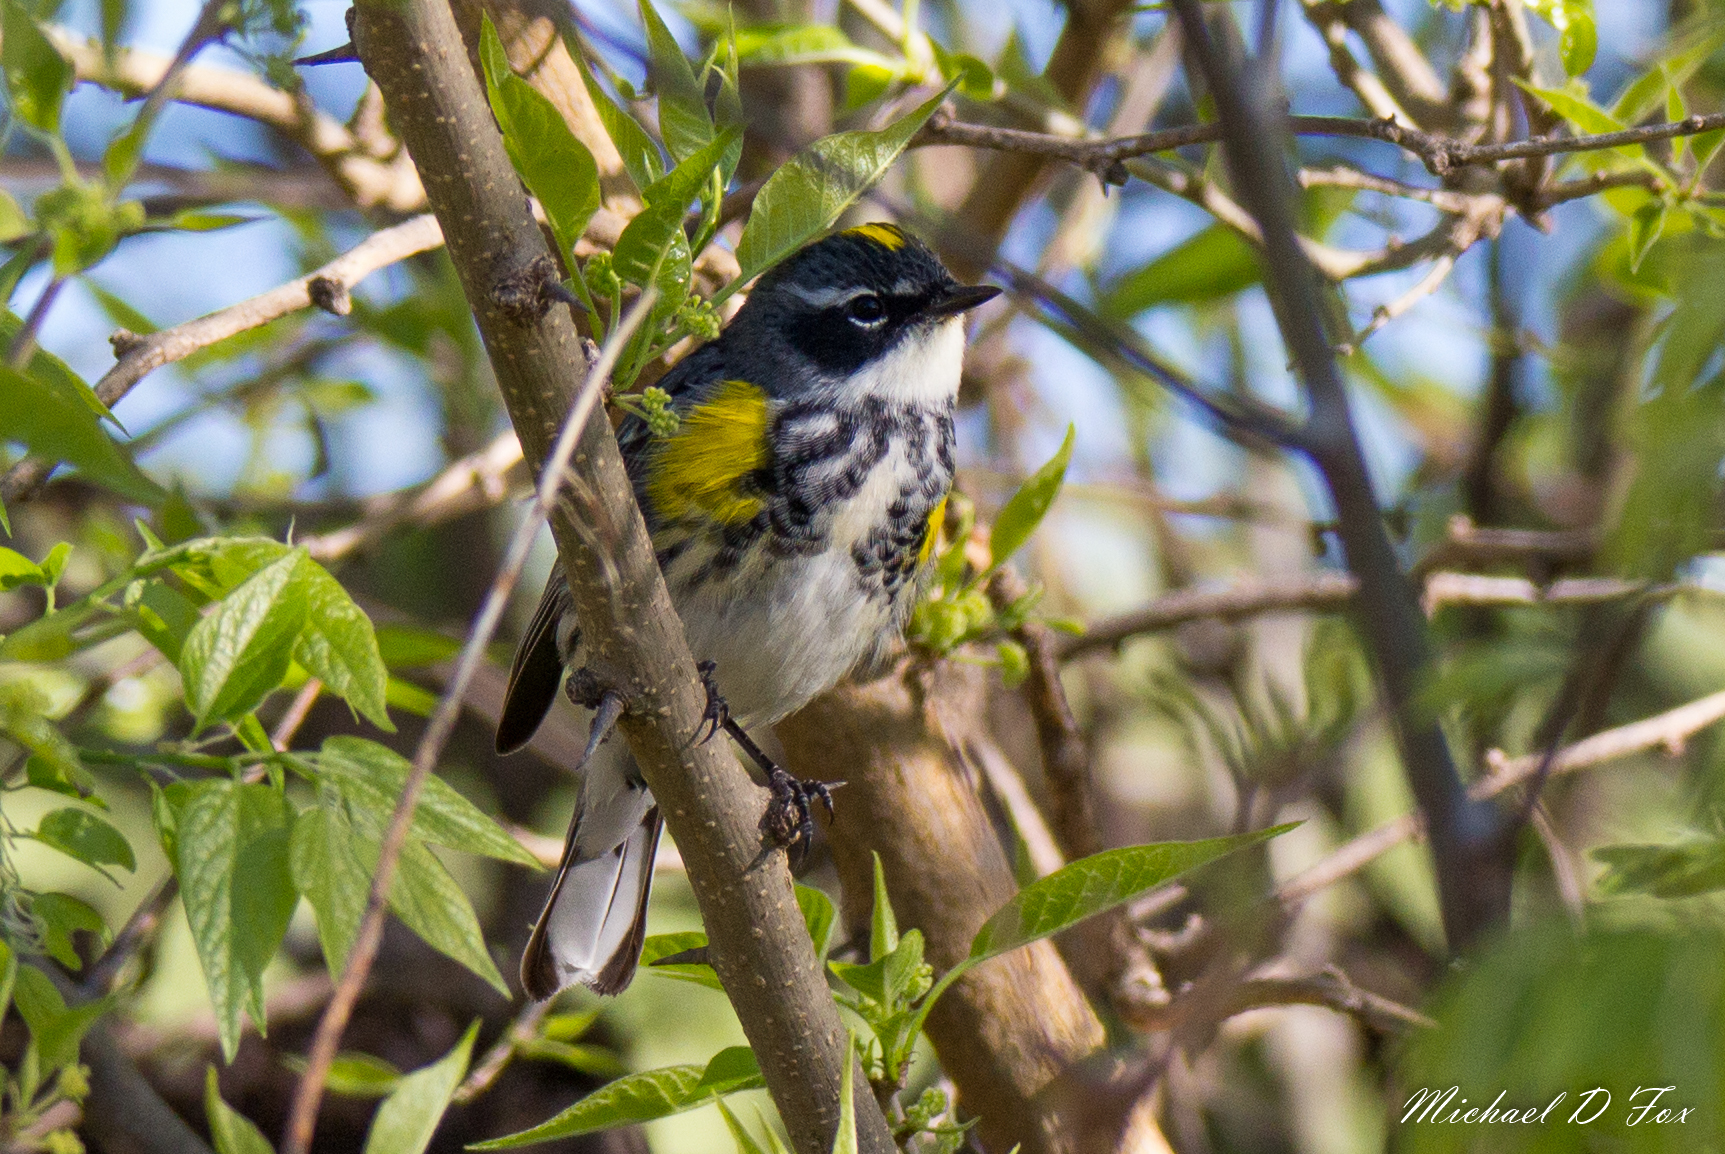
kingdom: Animalia
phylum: Chordata
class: Aves
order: Passeriformes
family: Parulidae
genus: Setophaga
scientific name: Setophaga coronata
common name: Myrtle warbler
